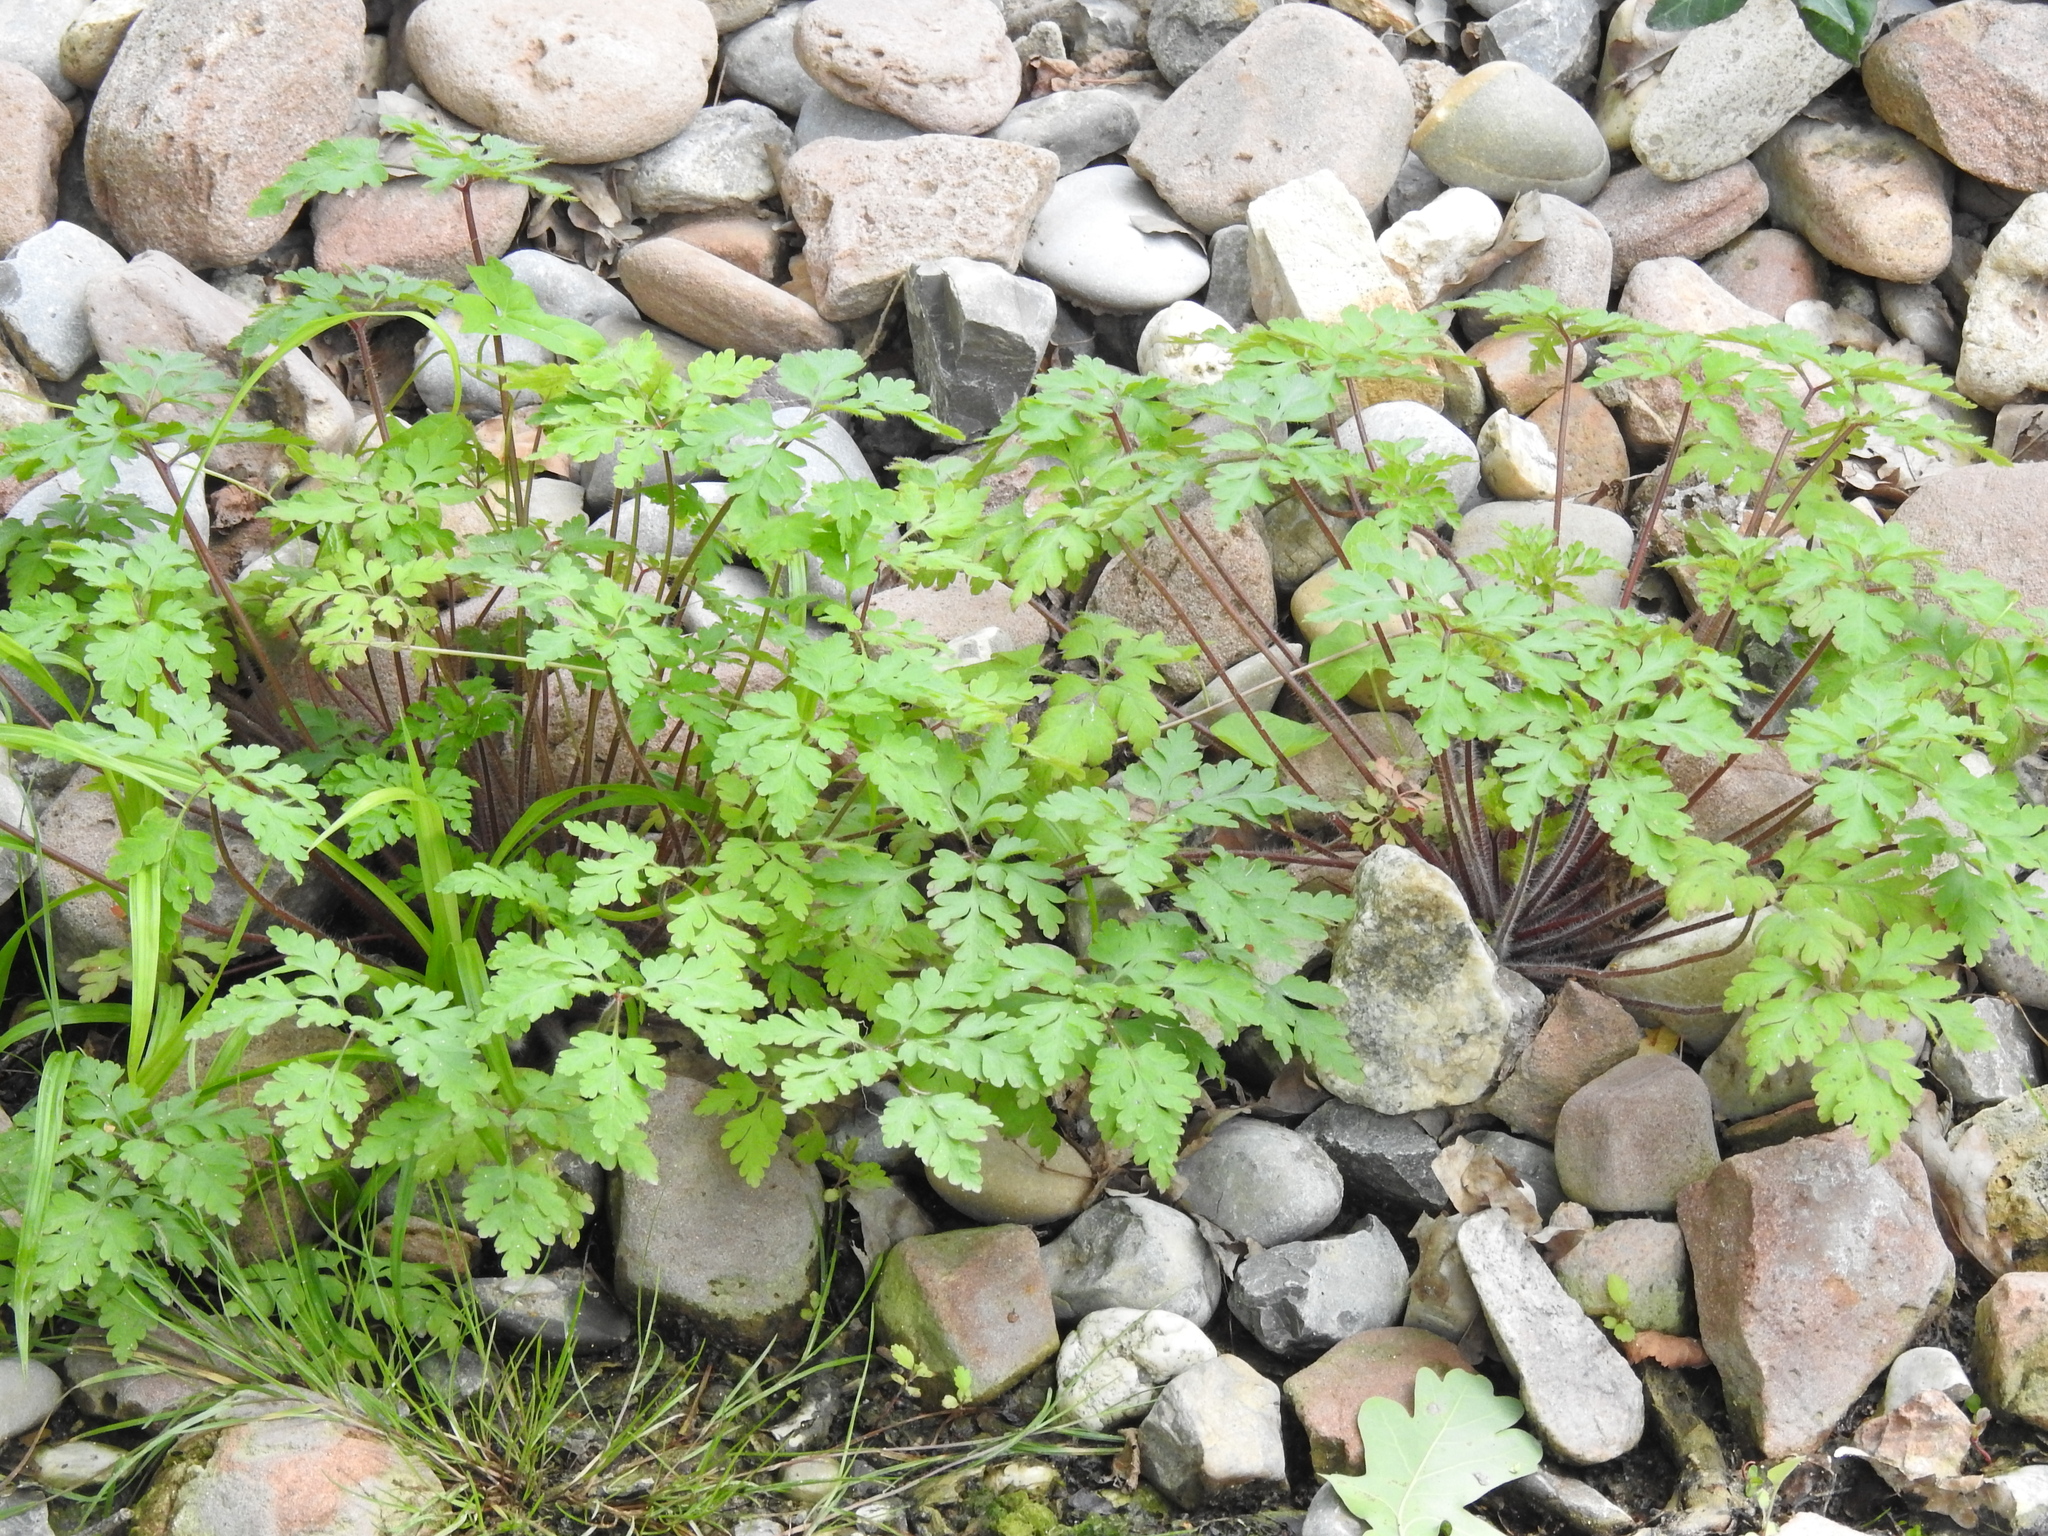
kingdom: Plantae
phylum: Tracheophyta
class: Magnoliopsida
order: Geraniales
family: Geraniaceae
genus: Geranium
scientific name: Geranium robertianum
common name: Herb-robert
